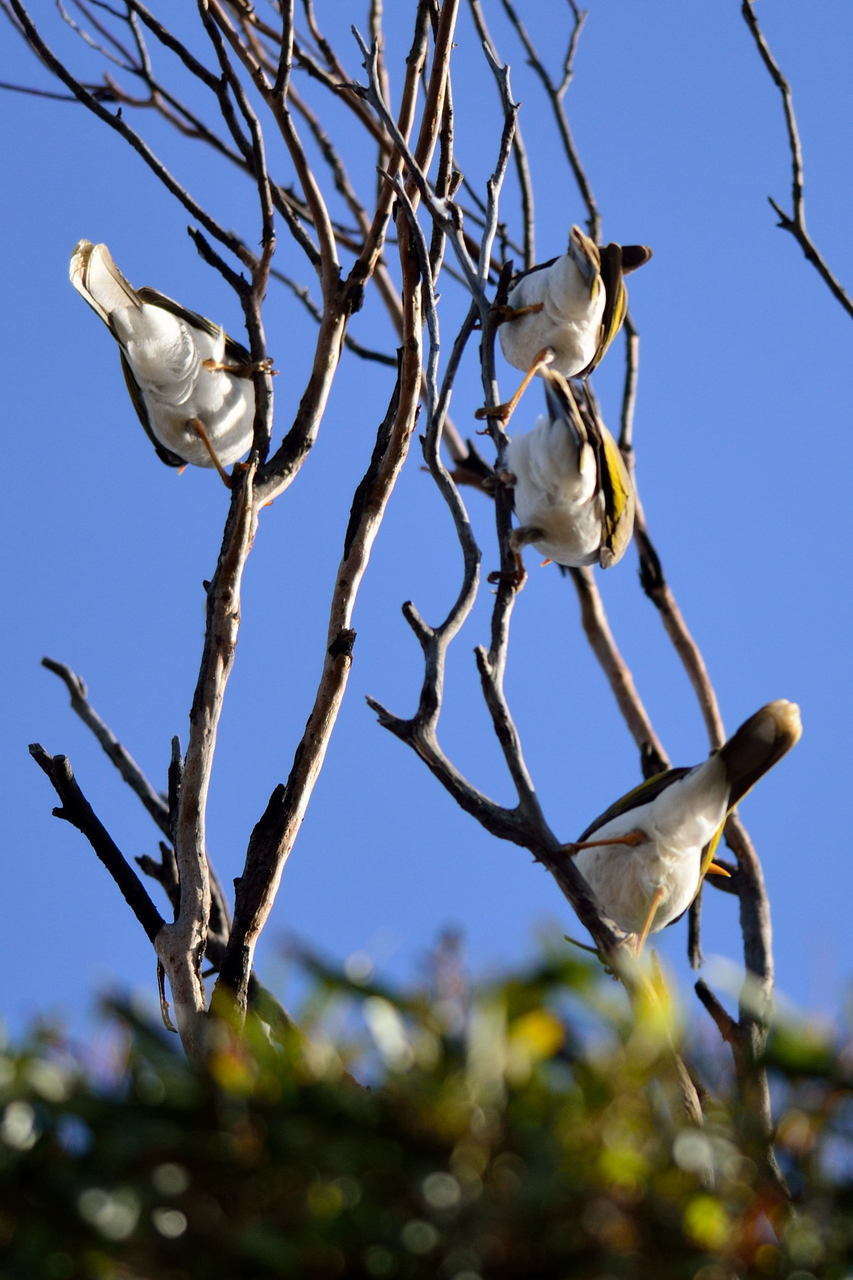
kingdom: Animalia
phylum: Chordata
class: Aves
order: Passeriformes
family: Meliphagidae
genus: Manorina
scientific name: Manorina flavigula
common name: Yellow-throated miner
